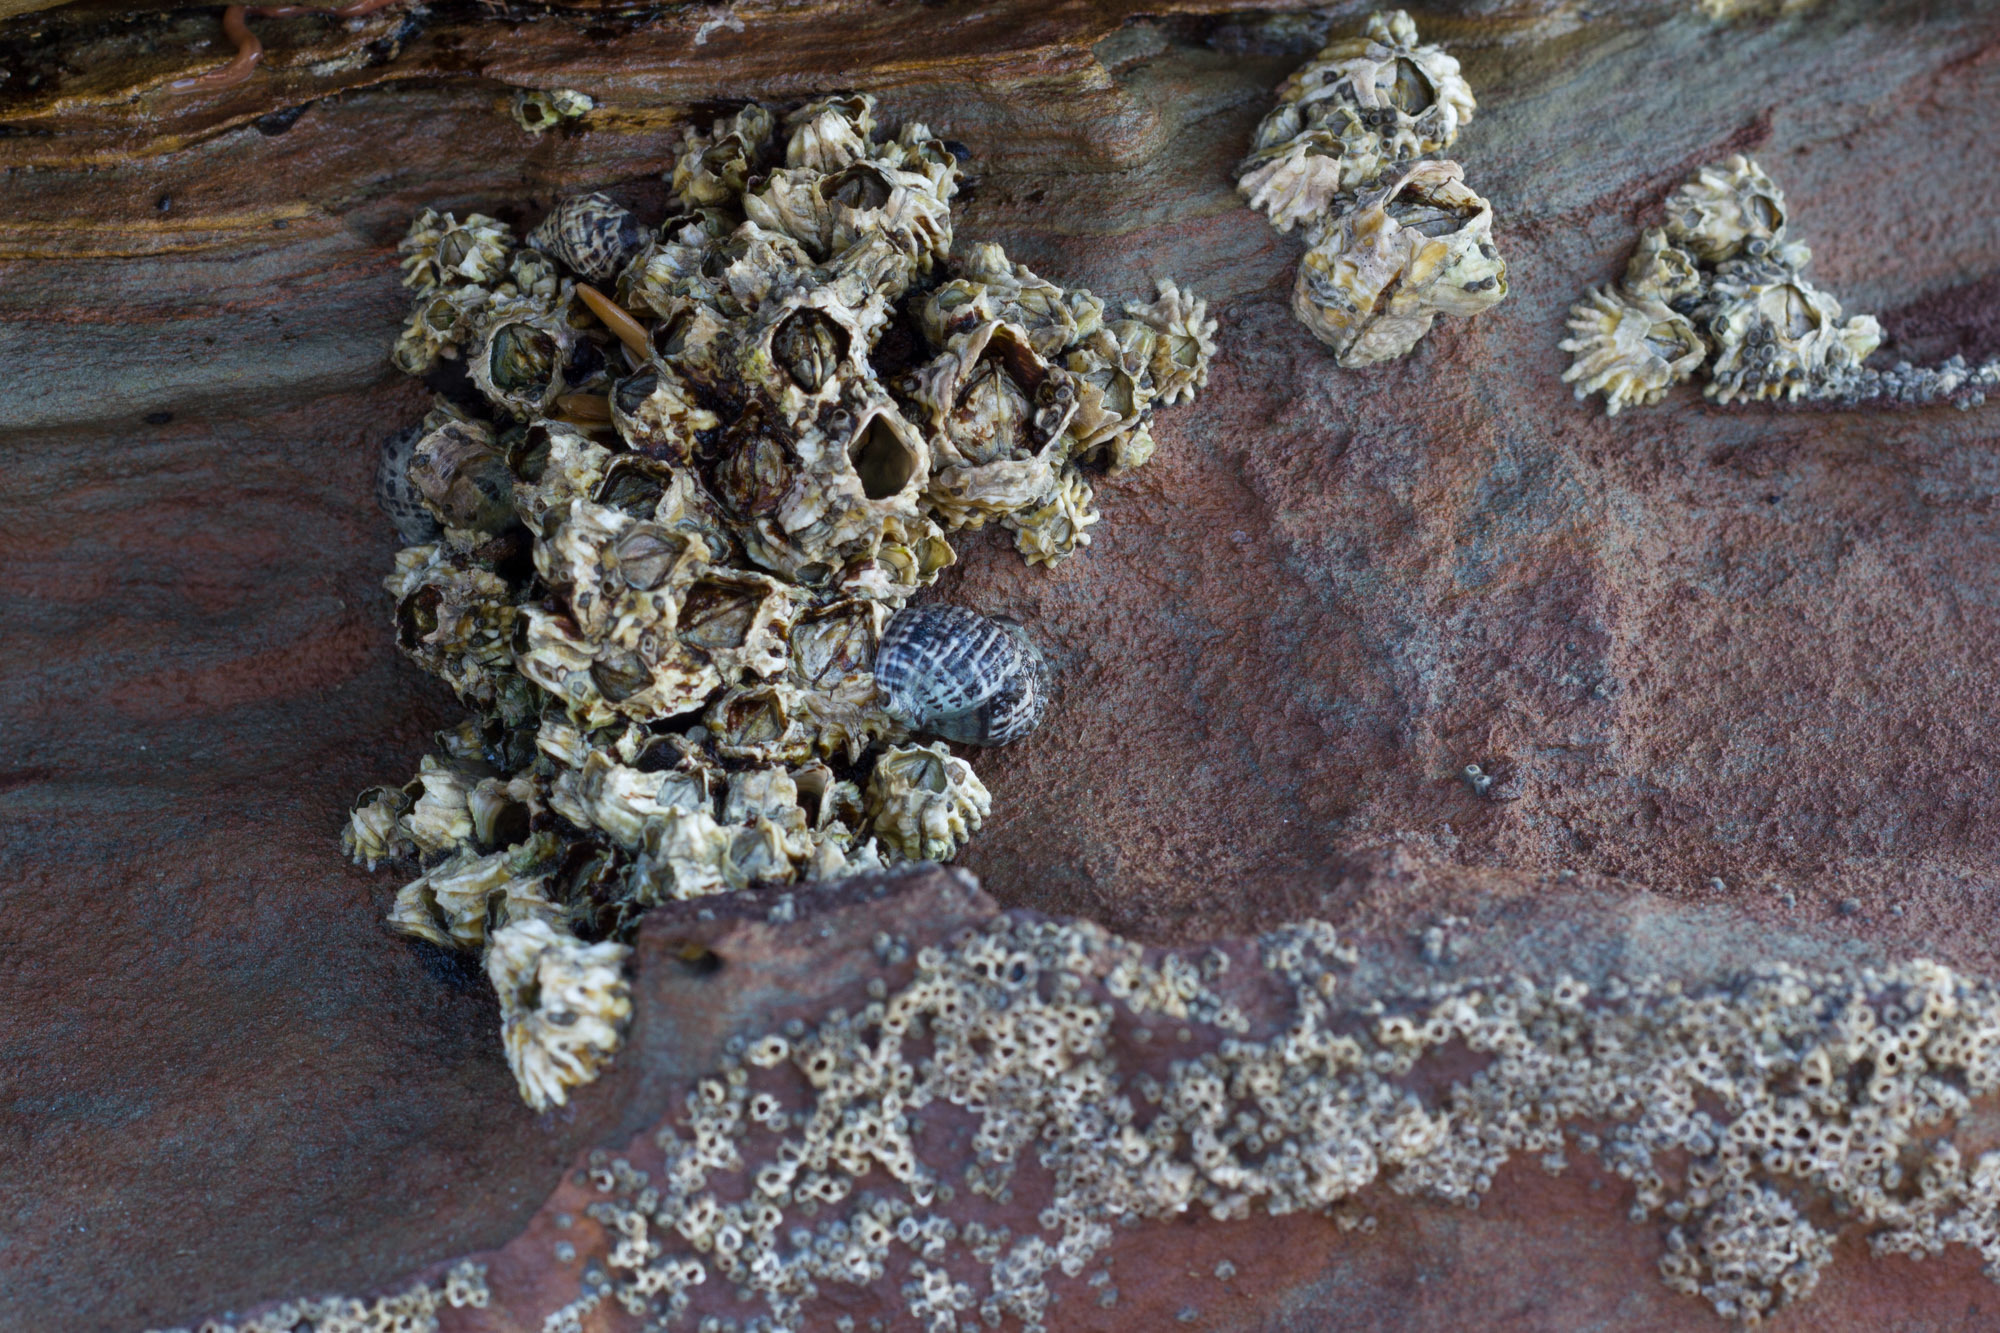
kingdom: Animalia
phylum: Mollusca
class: Gastropoda
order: Neogastropoda
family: Muricidae
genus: Haustrum
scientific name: Haustrum scobina
